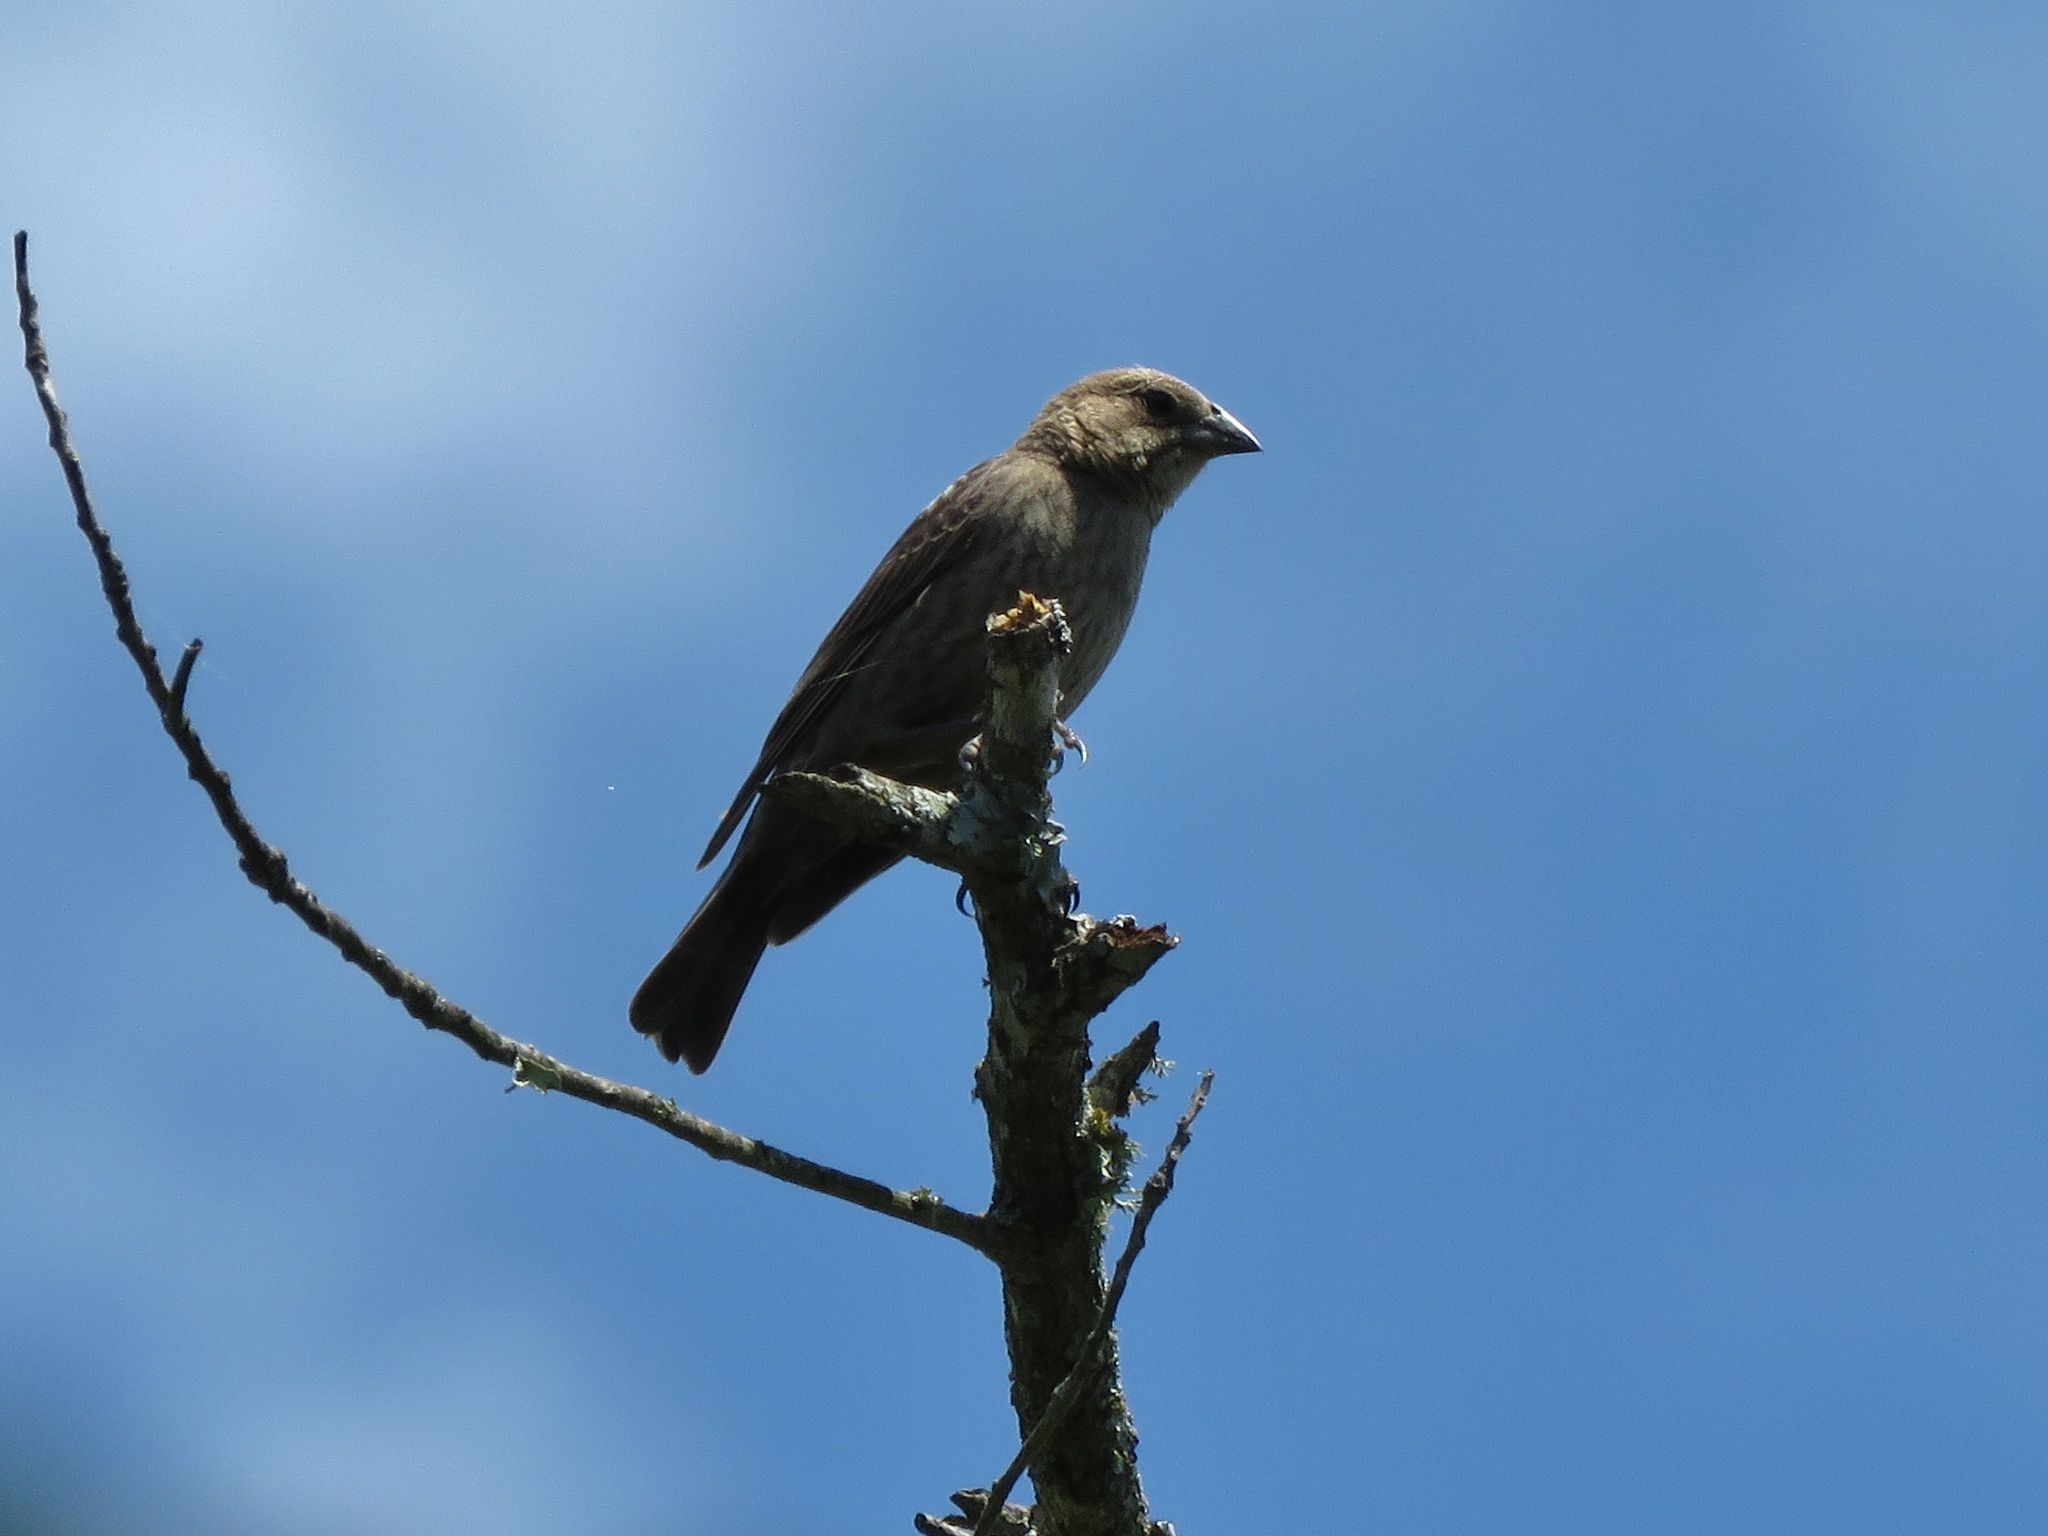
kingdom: Animalia
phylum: Chordata
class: Aves
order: Passeriformes
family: Icteridae
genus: Molothrus
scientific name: Molothrus ater
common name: Brown-headed cowbird
